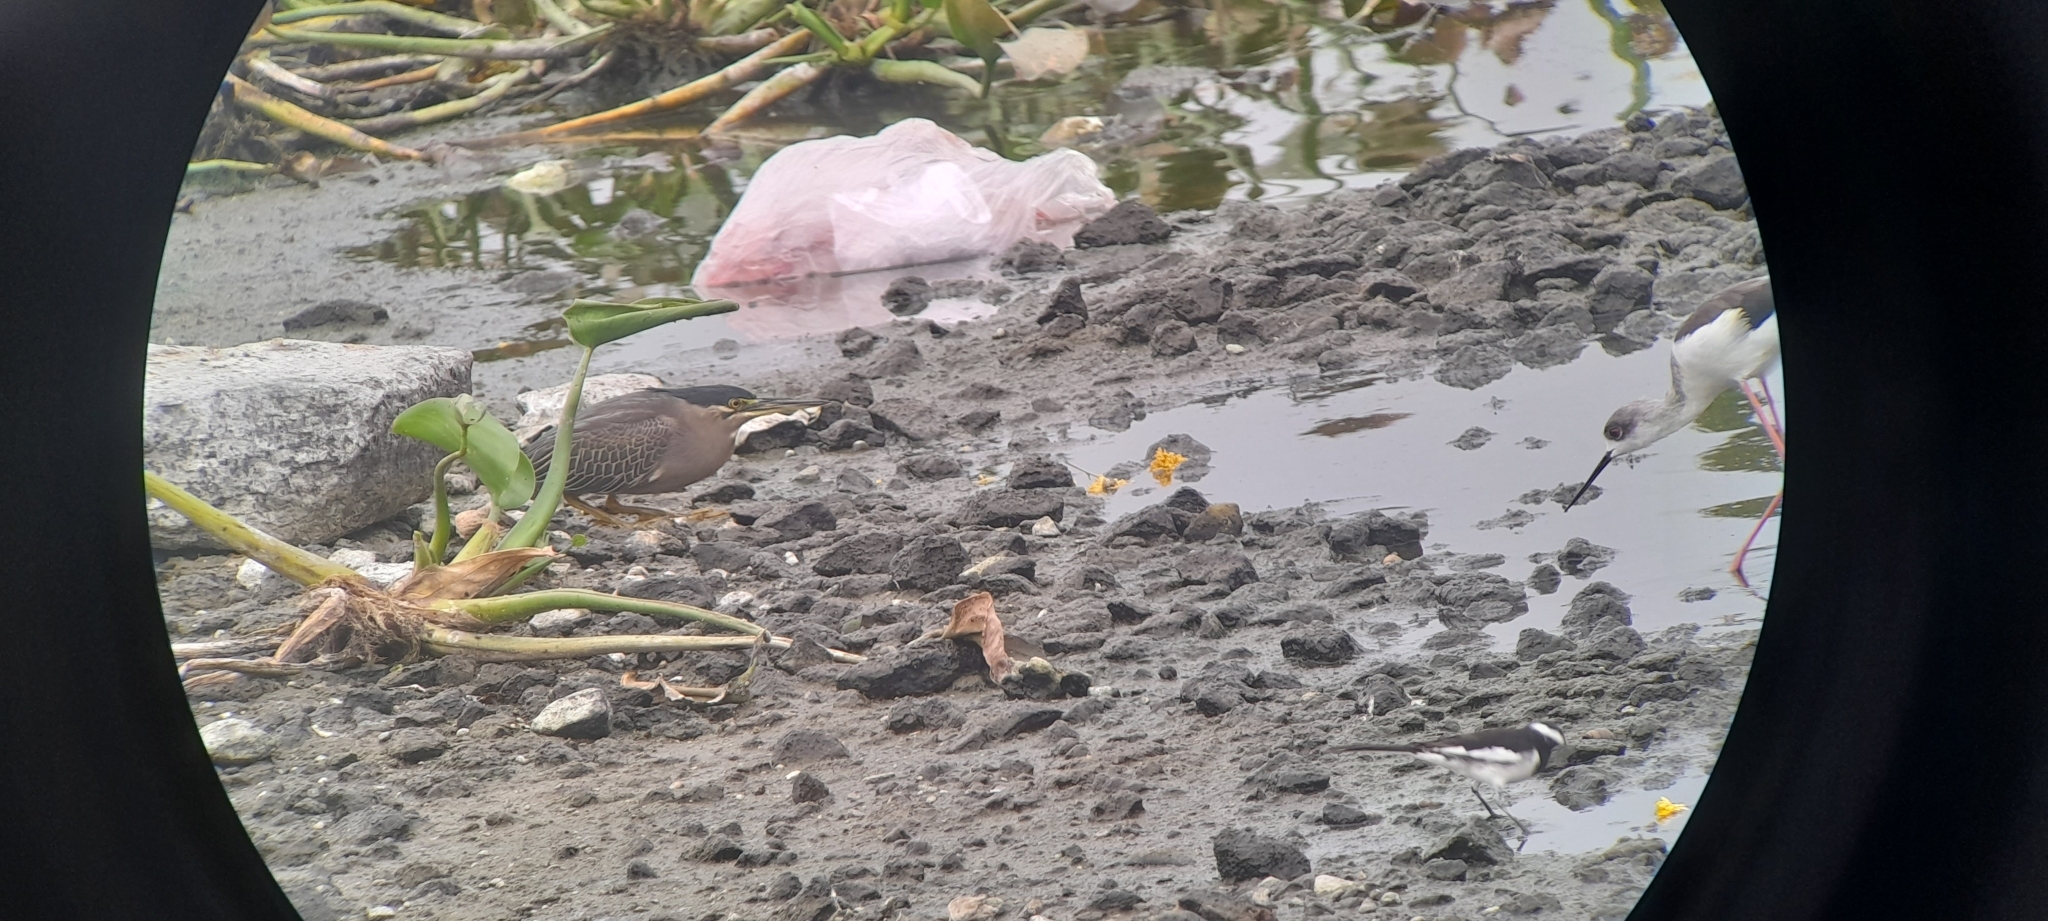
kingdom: Animalia
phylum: Chordata
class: Aves
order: Pelecaniformes
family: Ardeidae
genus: Butorides
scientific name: Butorides striata
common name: Striated heron
